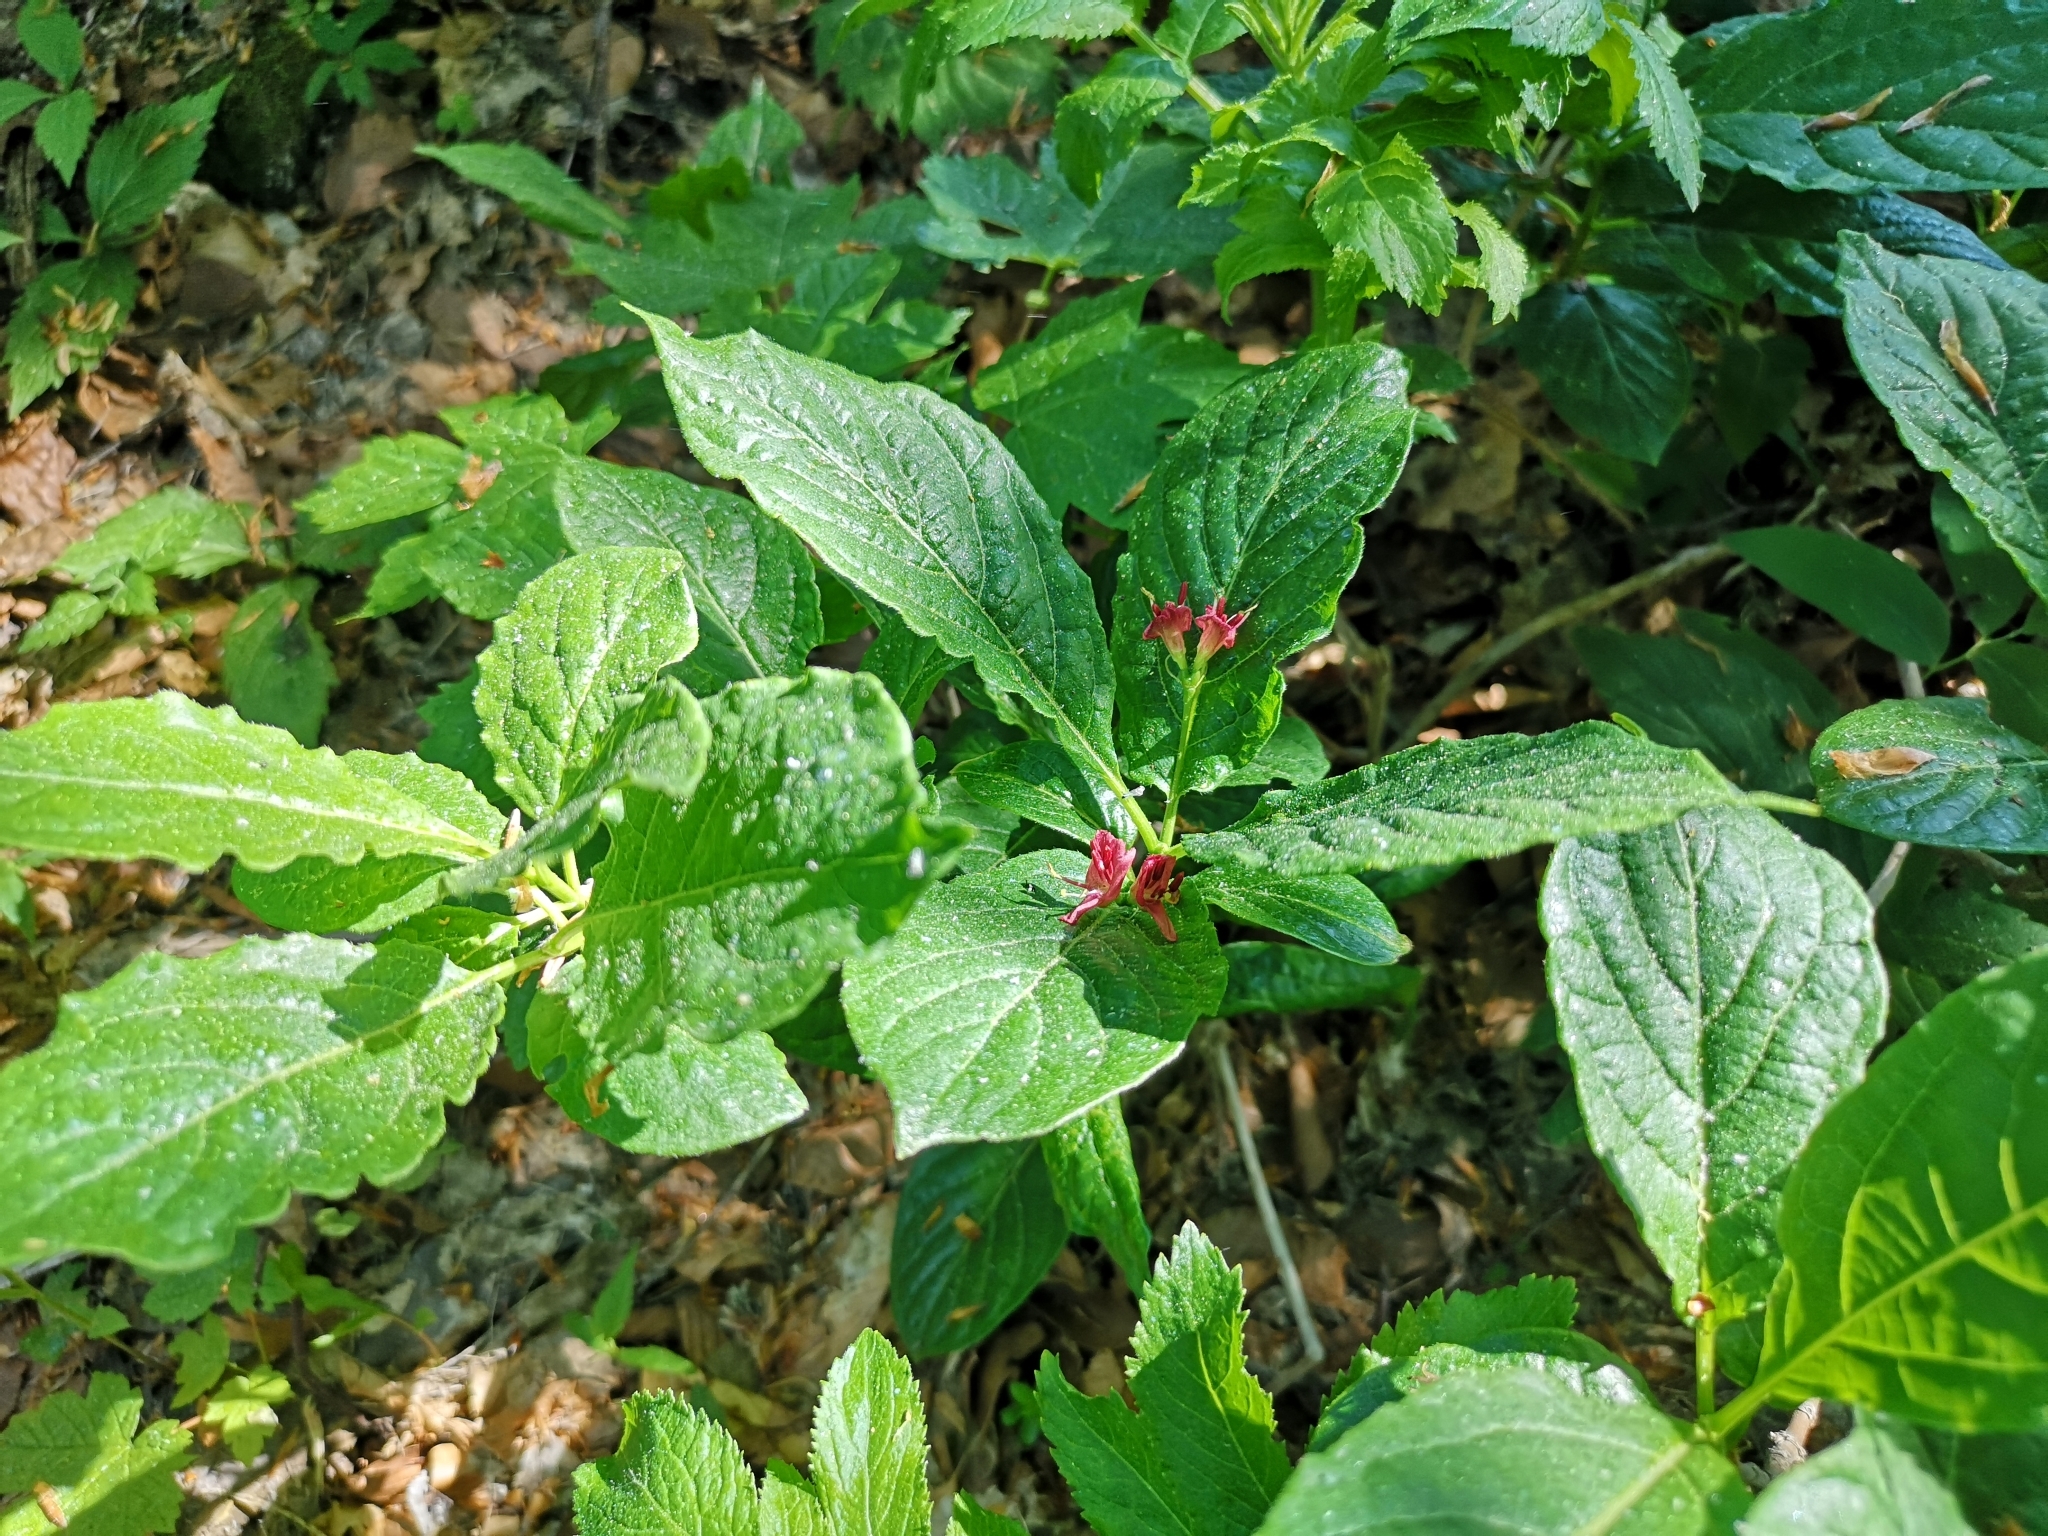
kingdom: Plantae
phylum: Tracheophyta
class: Magnoliopsida
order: Dipsacales
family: Caprifoliaceae
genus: Lonicera
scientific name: Lonicera alpigena
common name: Alpine honeysuckle
